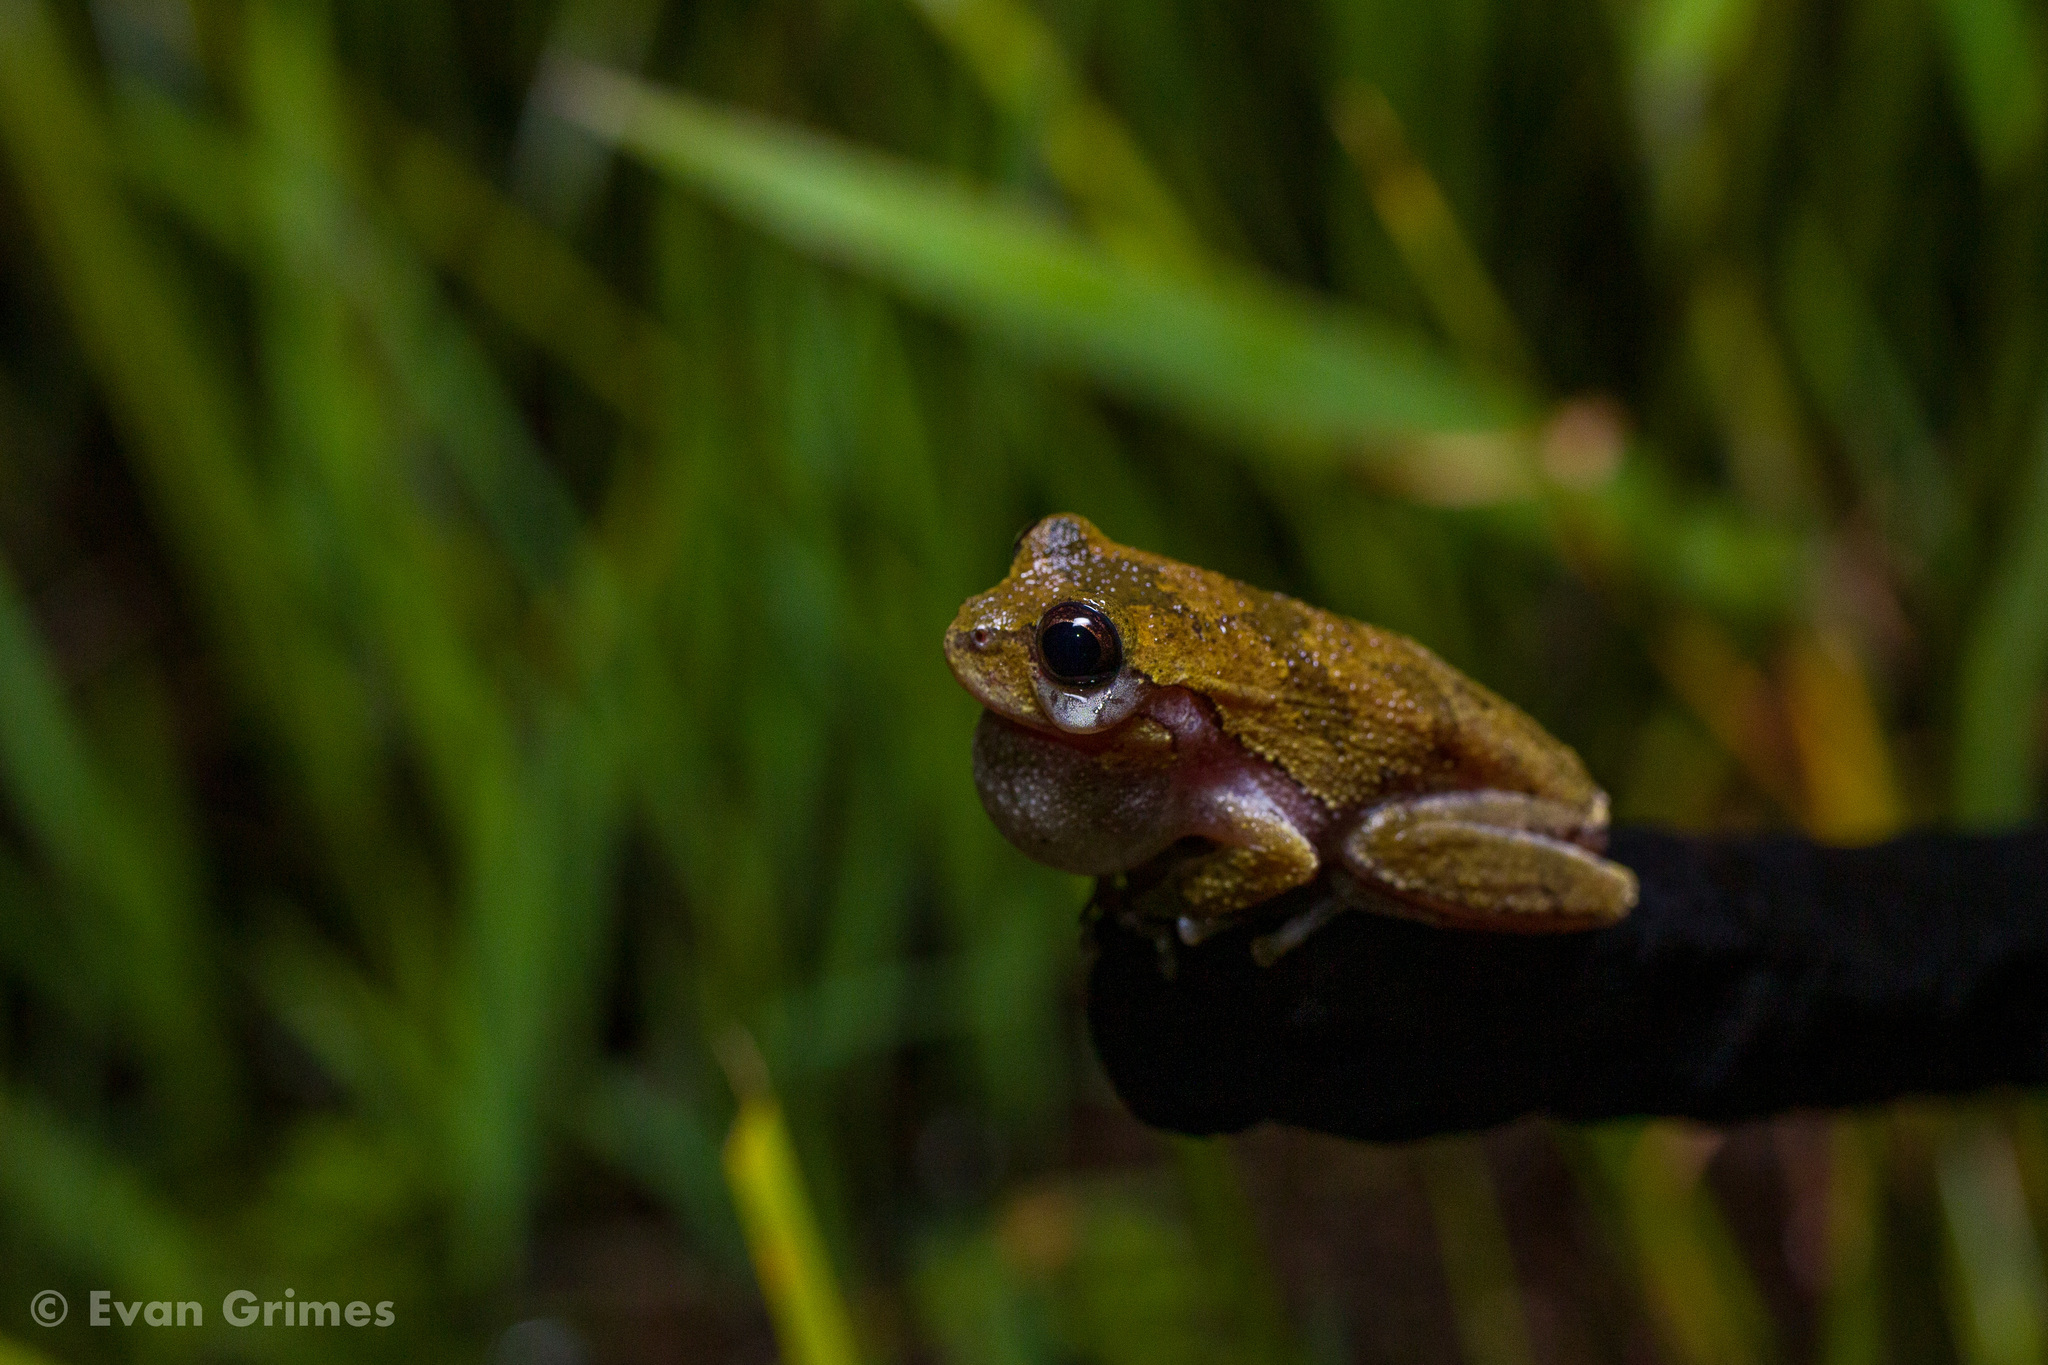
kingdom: Animalia
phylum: Chordata
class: Amphibia
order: Anura
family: Hylidae
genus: Hyla
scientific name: Hyla femoralis
